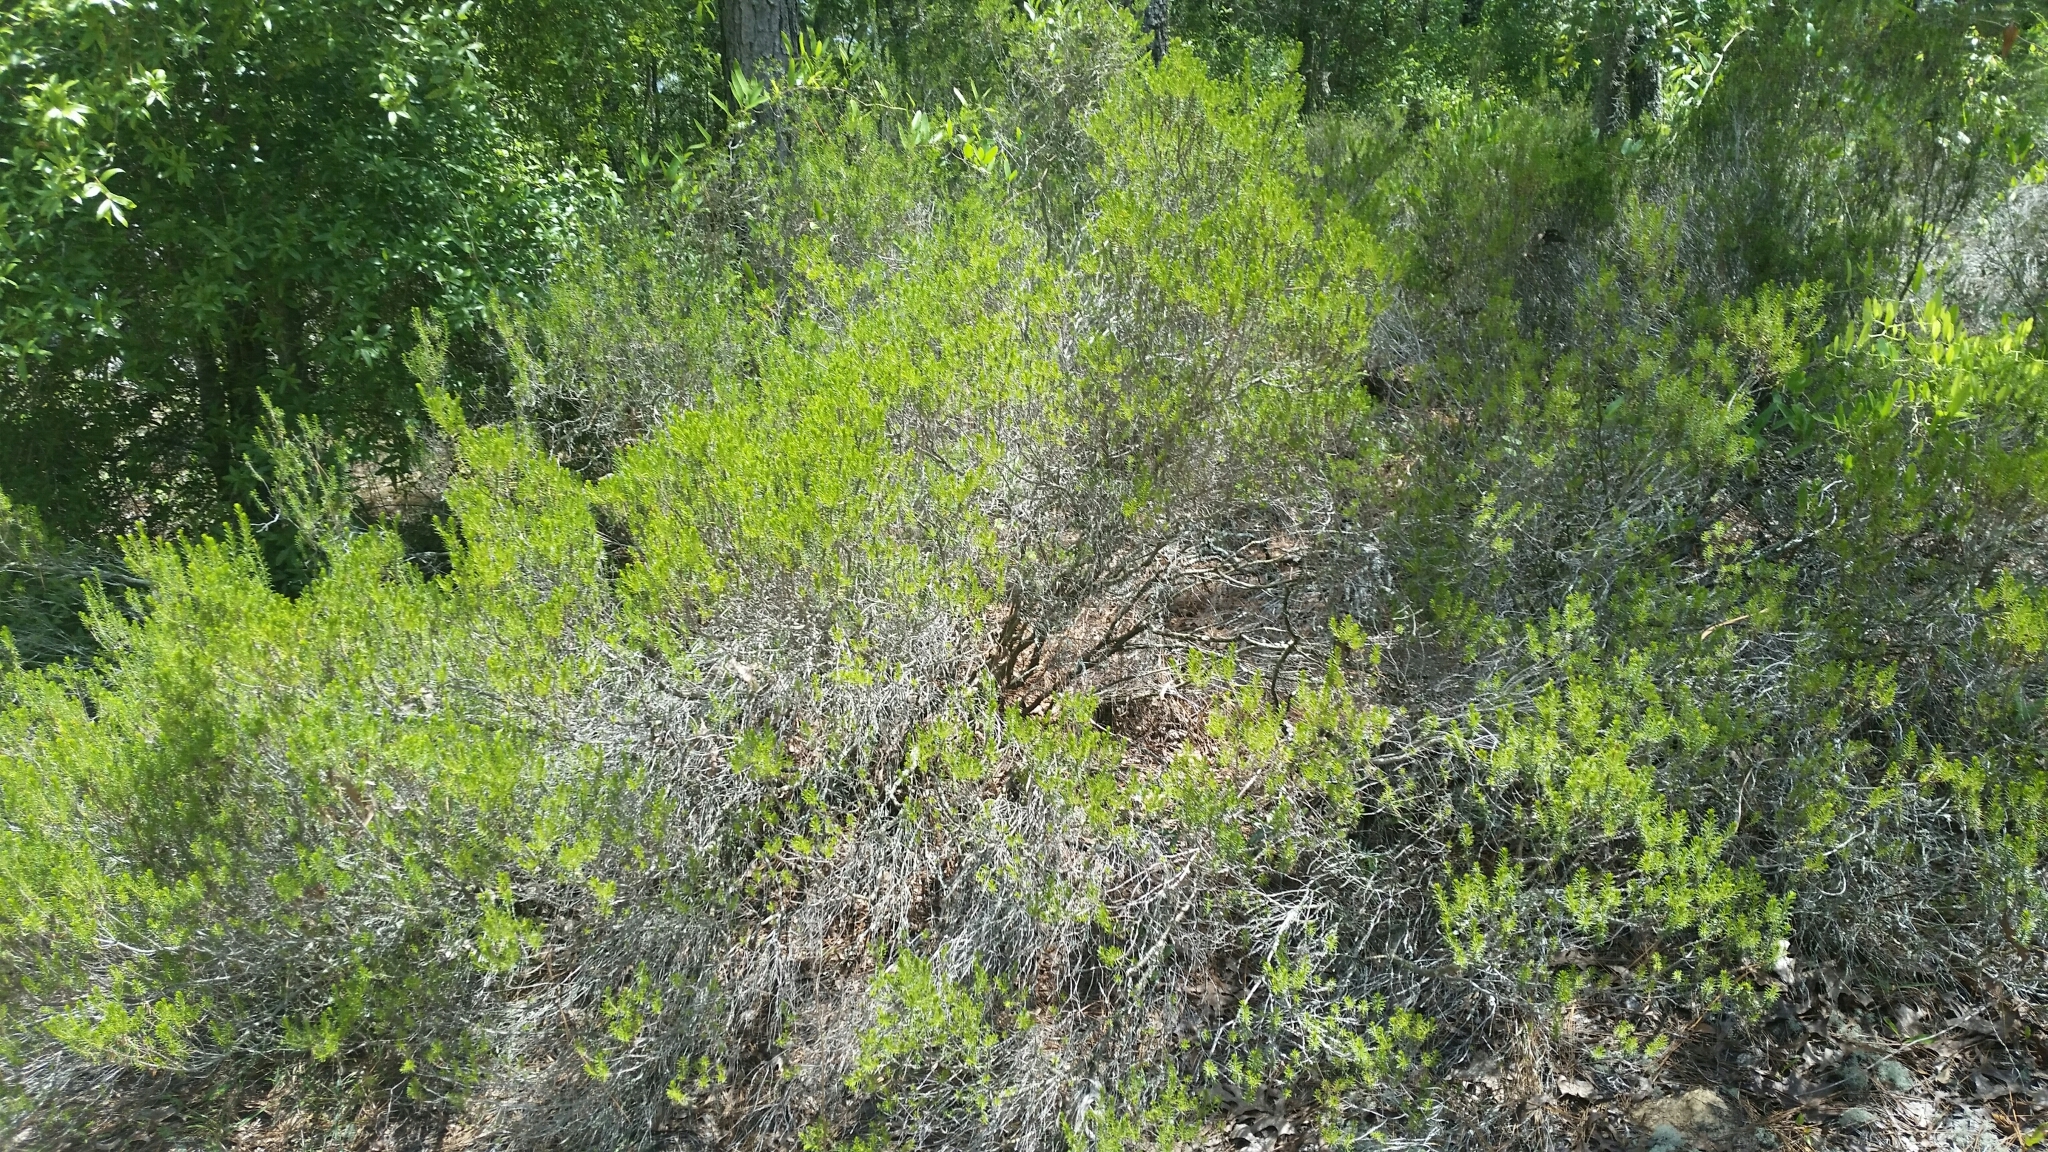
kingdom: Plantae
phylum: Tracheophyta
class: Magnoliopsida
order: Ericales
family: Ericaceae
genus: Ceratiola
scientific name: Ceratiola ericoides
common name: Sandhill-rosemary
